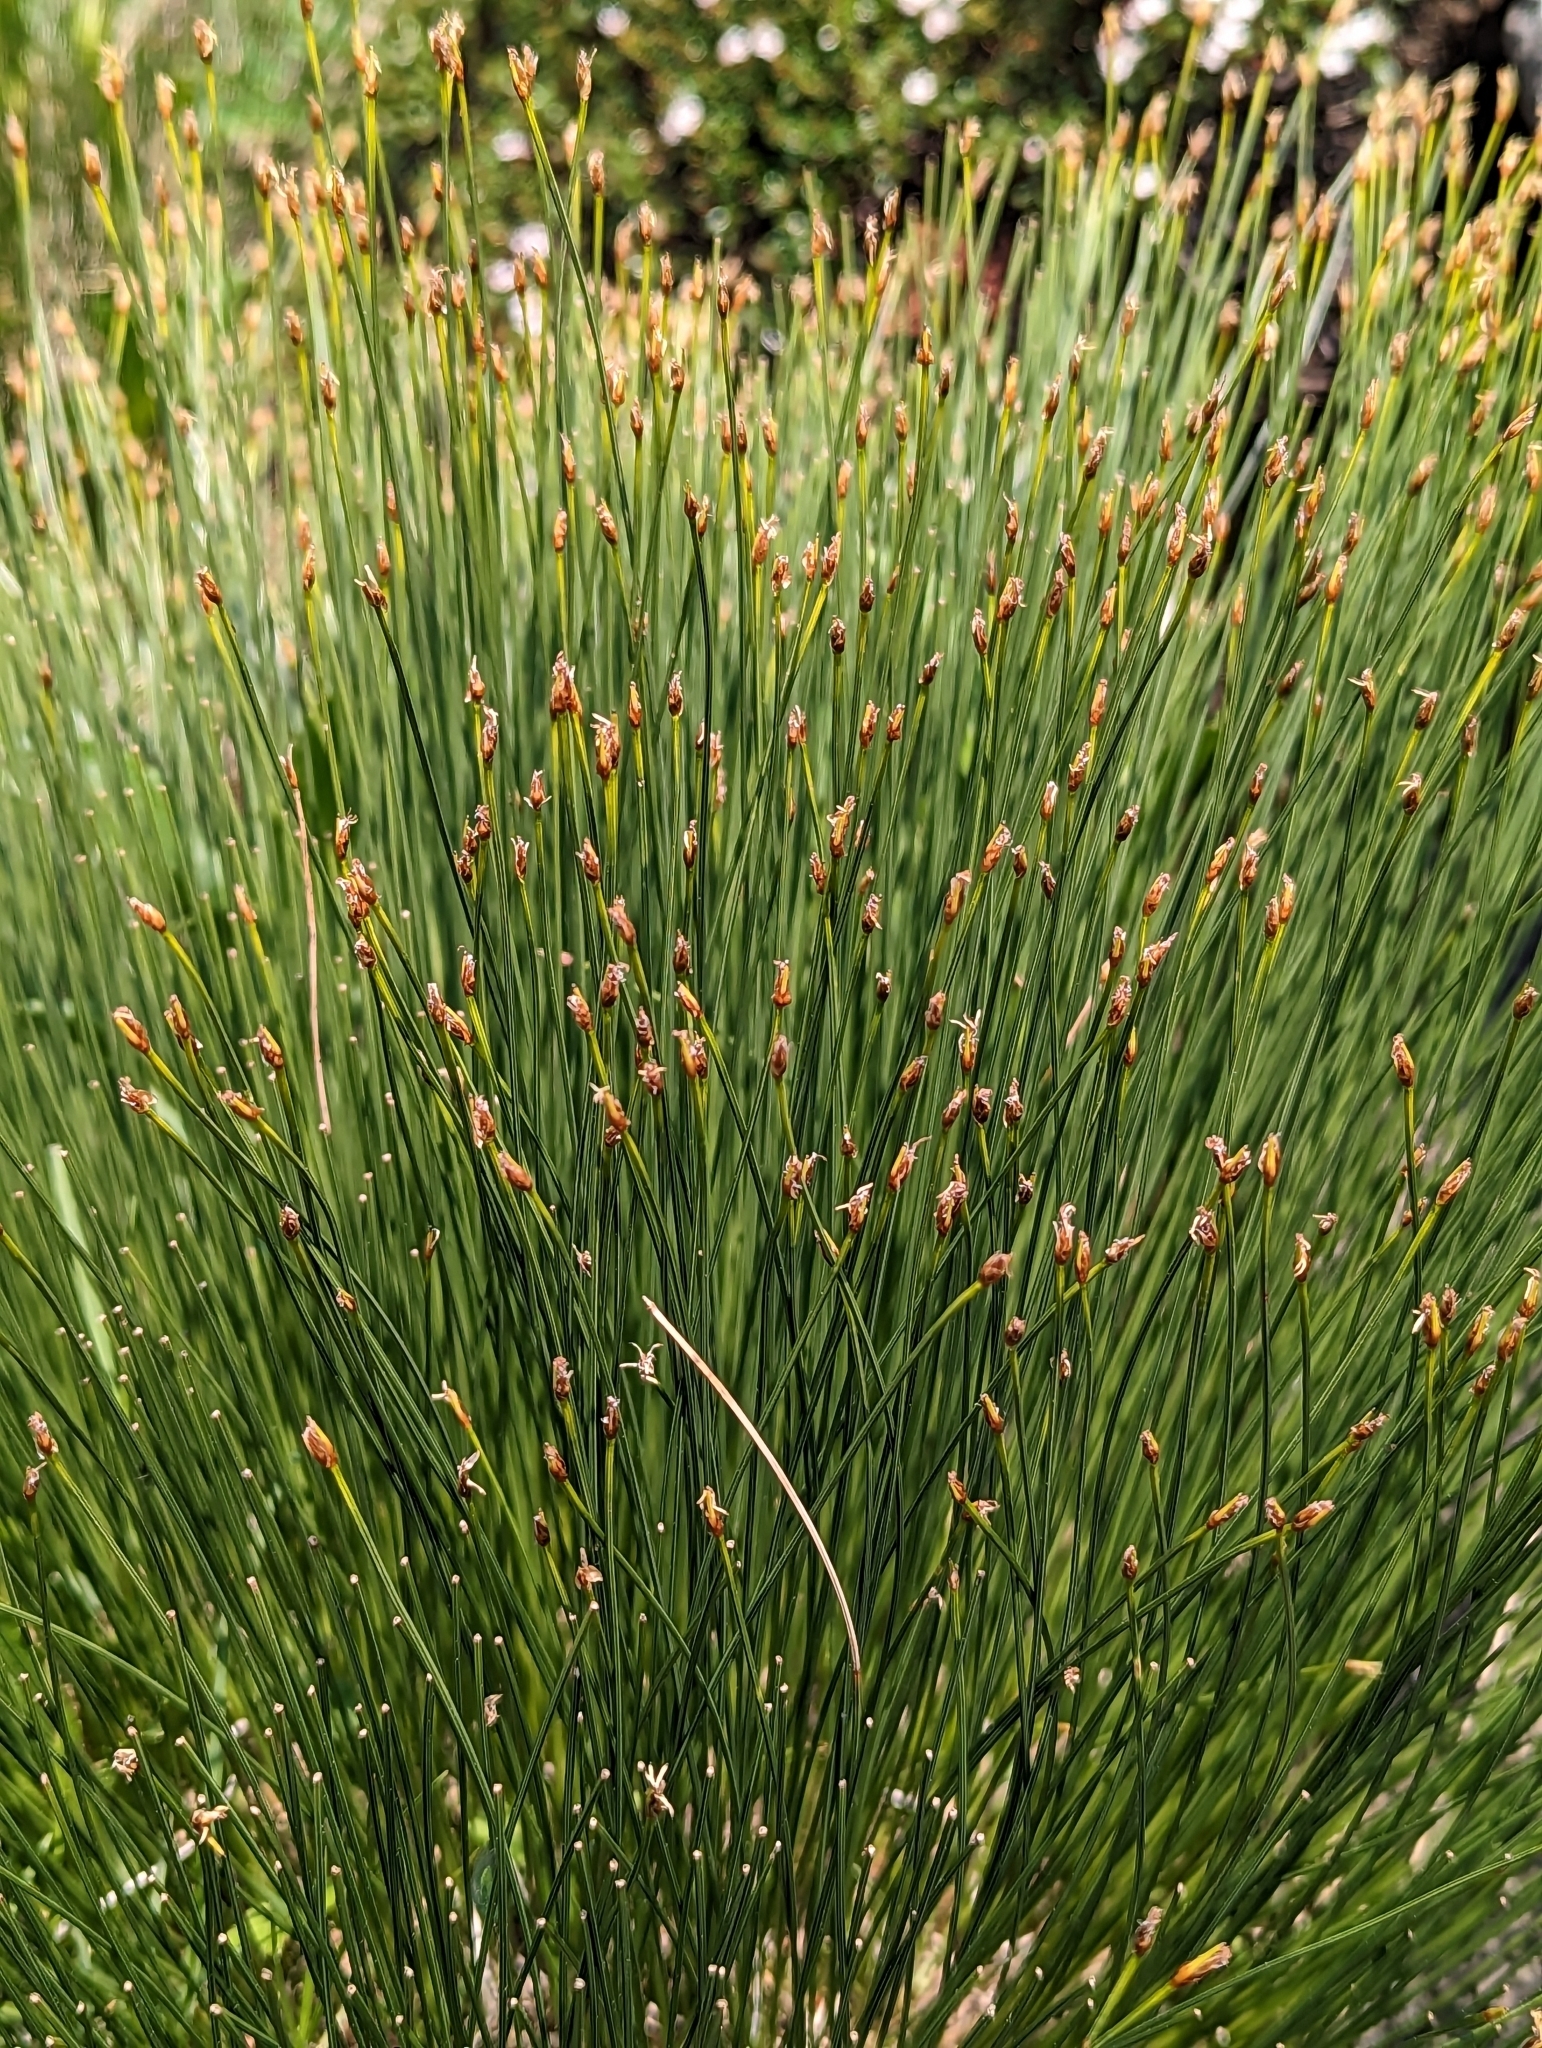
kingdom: Plantae
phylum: Tracheophyta
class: Liliopsida
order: Poales
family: Cyperaceae
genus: Trichophorum
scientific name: Trichophorum cespitosum
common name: Cespitose bulrush
